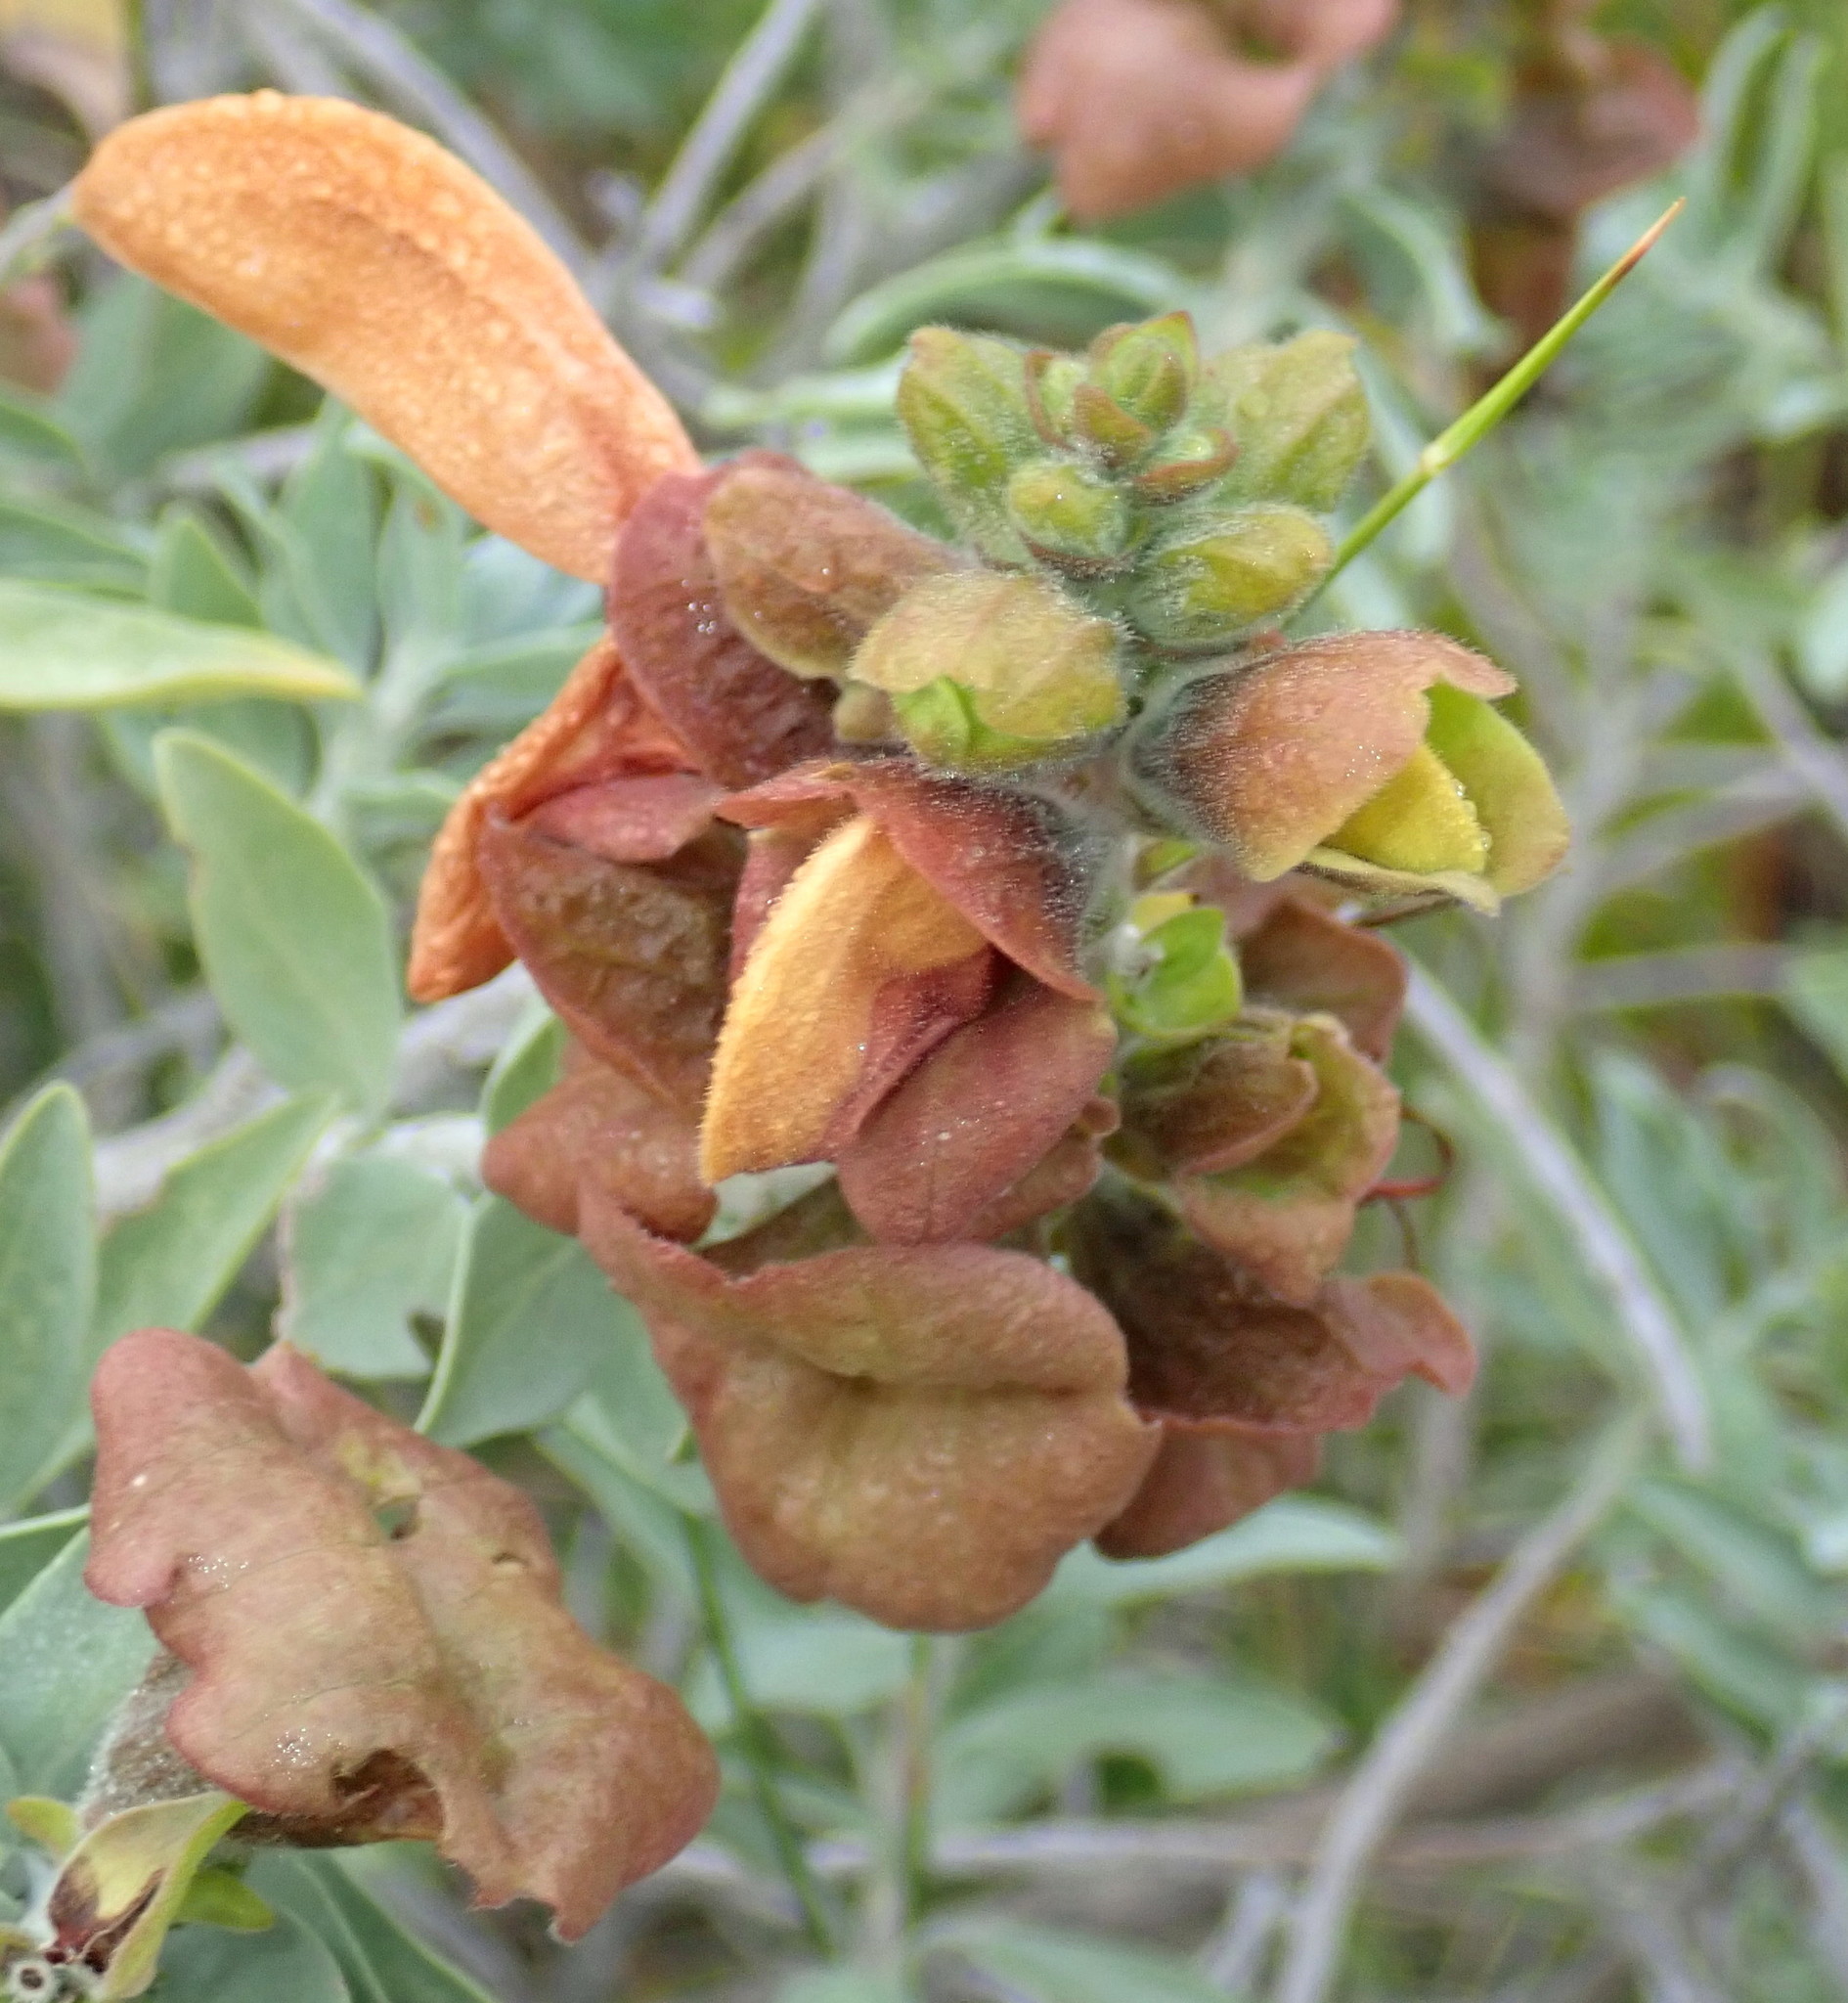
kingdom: Plantae
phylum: Tracheophyta
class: Magnoliopsida
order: Lamiales
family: Lamiaceae
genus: Salvia
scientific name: Salvia aurea
